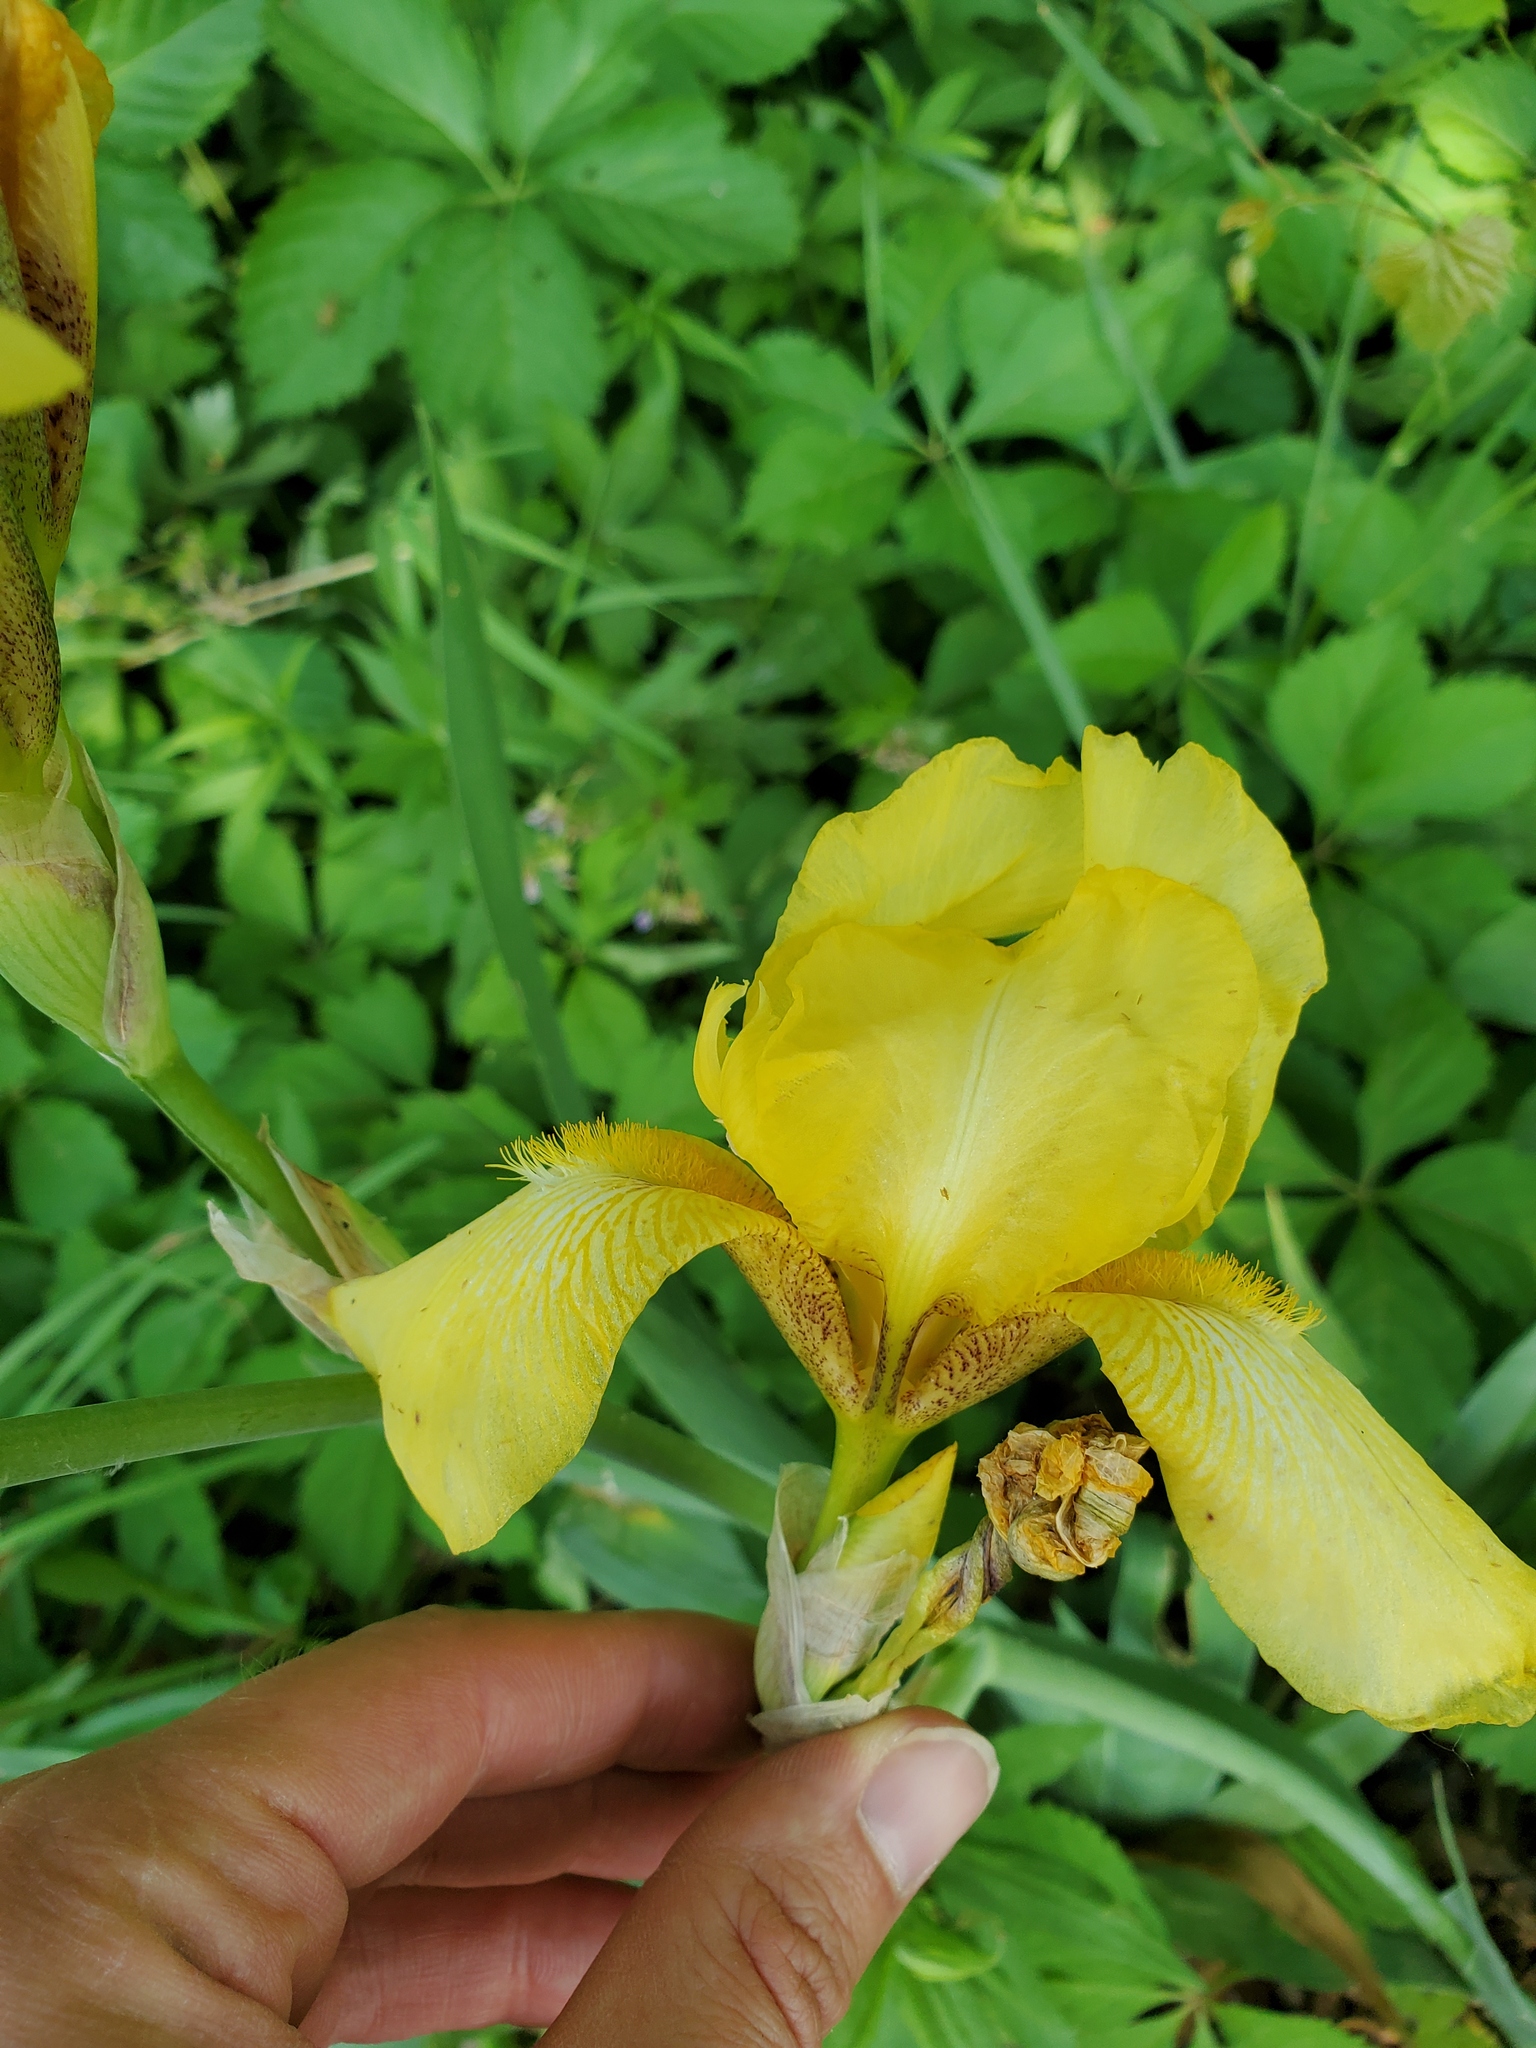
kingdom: Plantae
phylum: Tracheophyta
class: Liliopsida
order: Asparagales
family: Iridaceae
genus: Iris
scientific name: Iris hybrida
